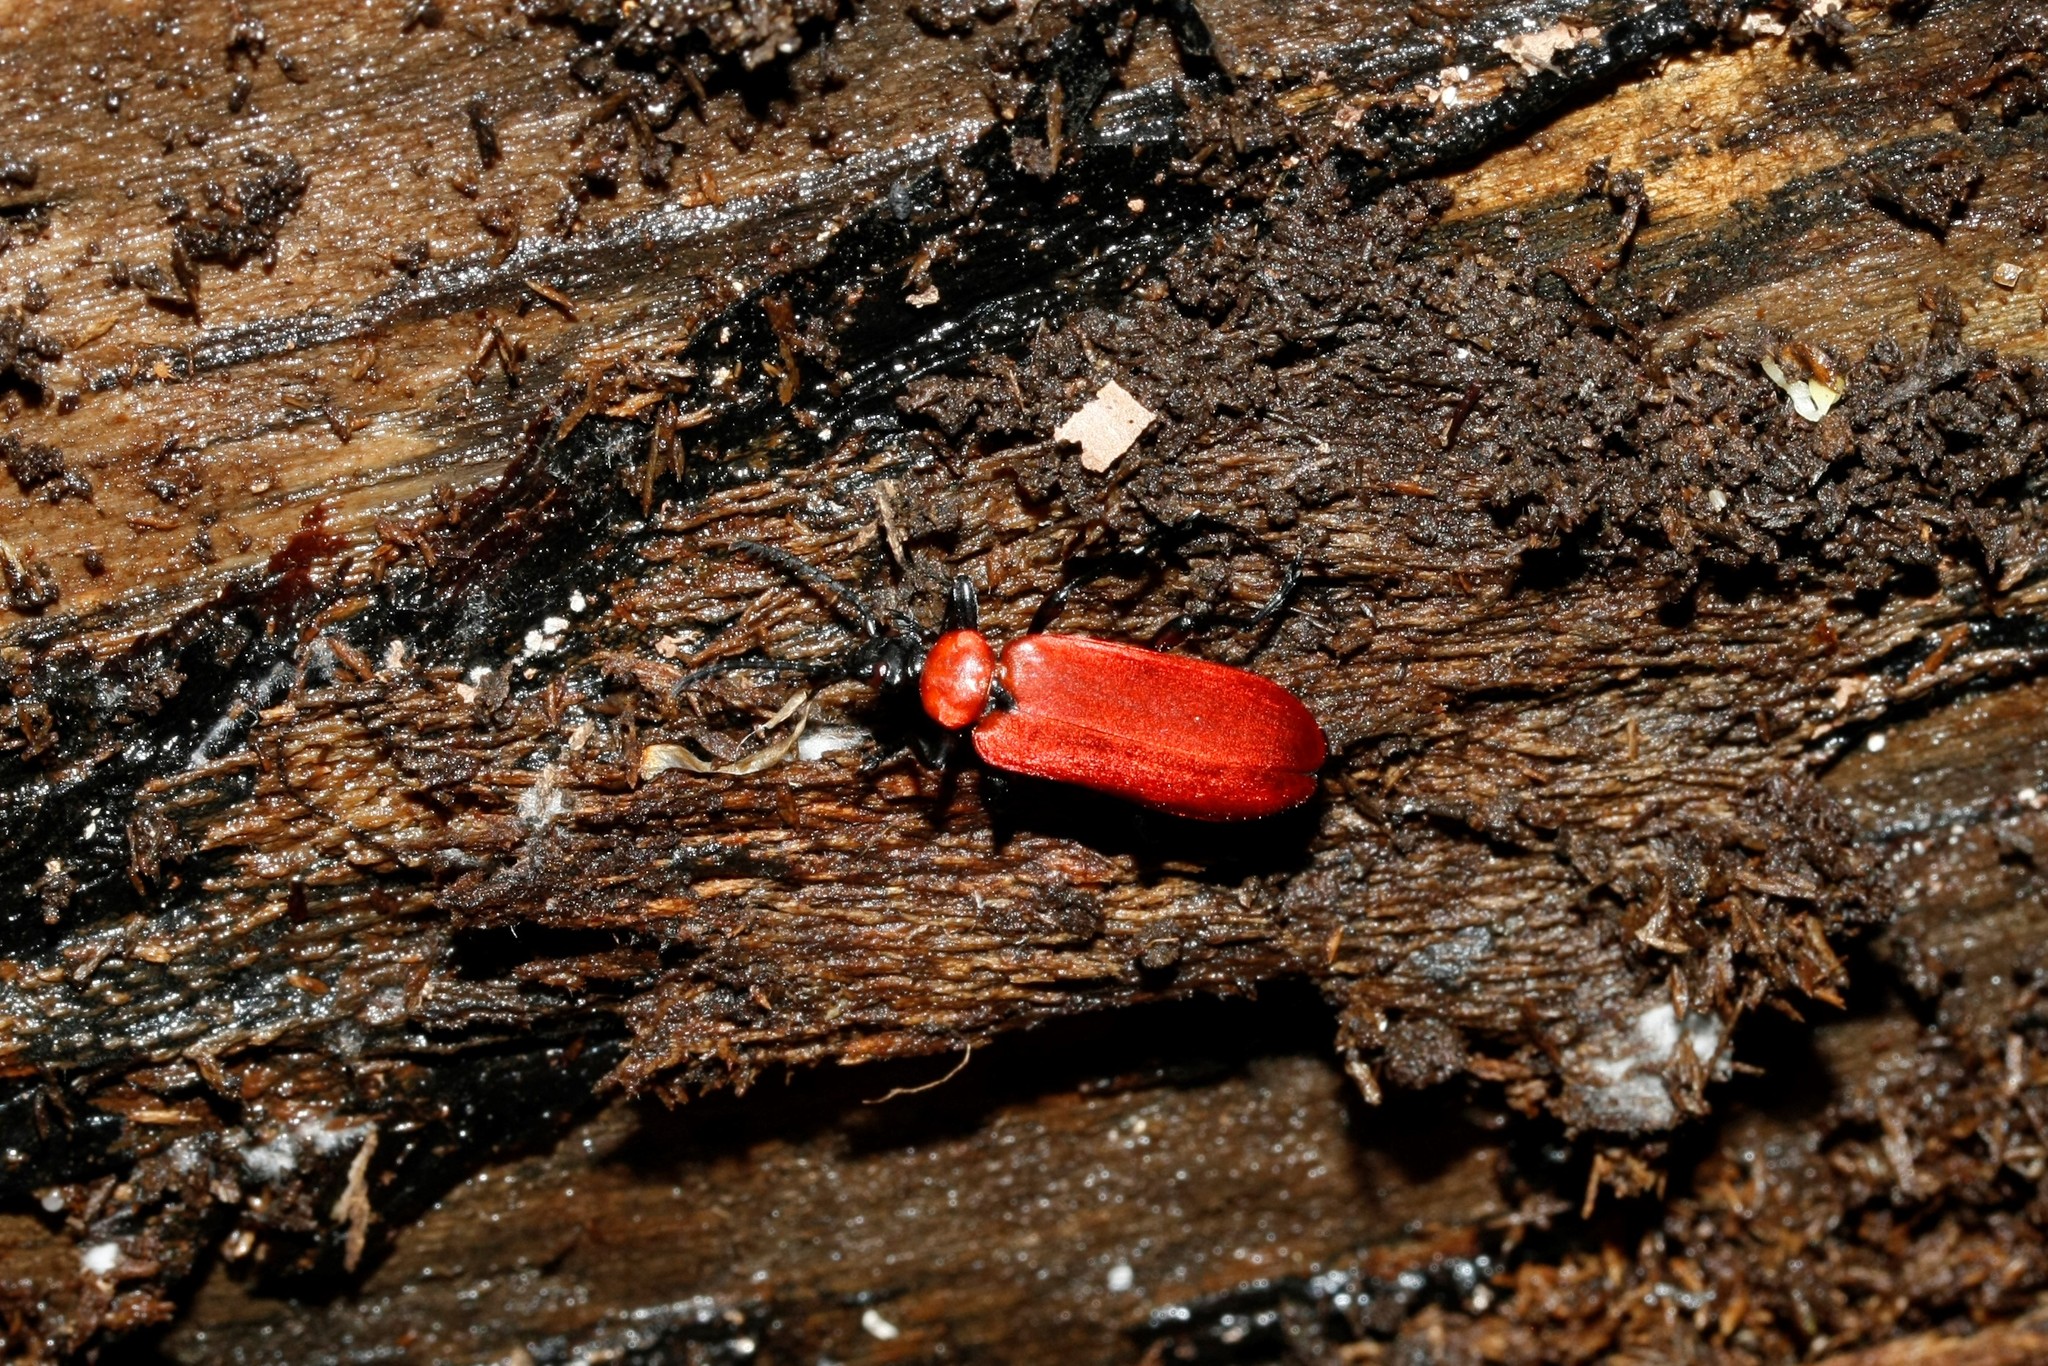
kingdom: Animalia
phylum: Arthropoda
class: Insecta
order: Coleoptera
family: Pyrochroidae
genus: Pyrochroa
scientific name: Pyrochroa coccinea
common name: Black-headed cardinal beetle
